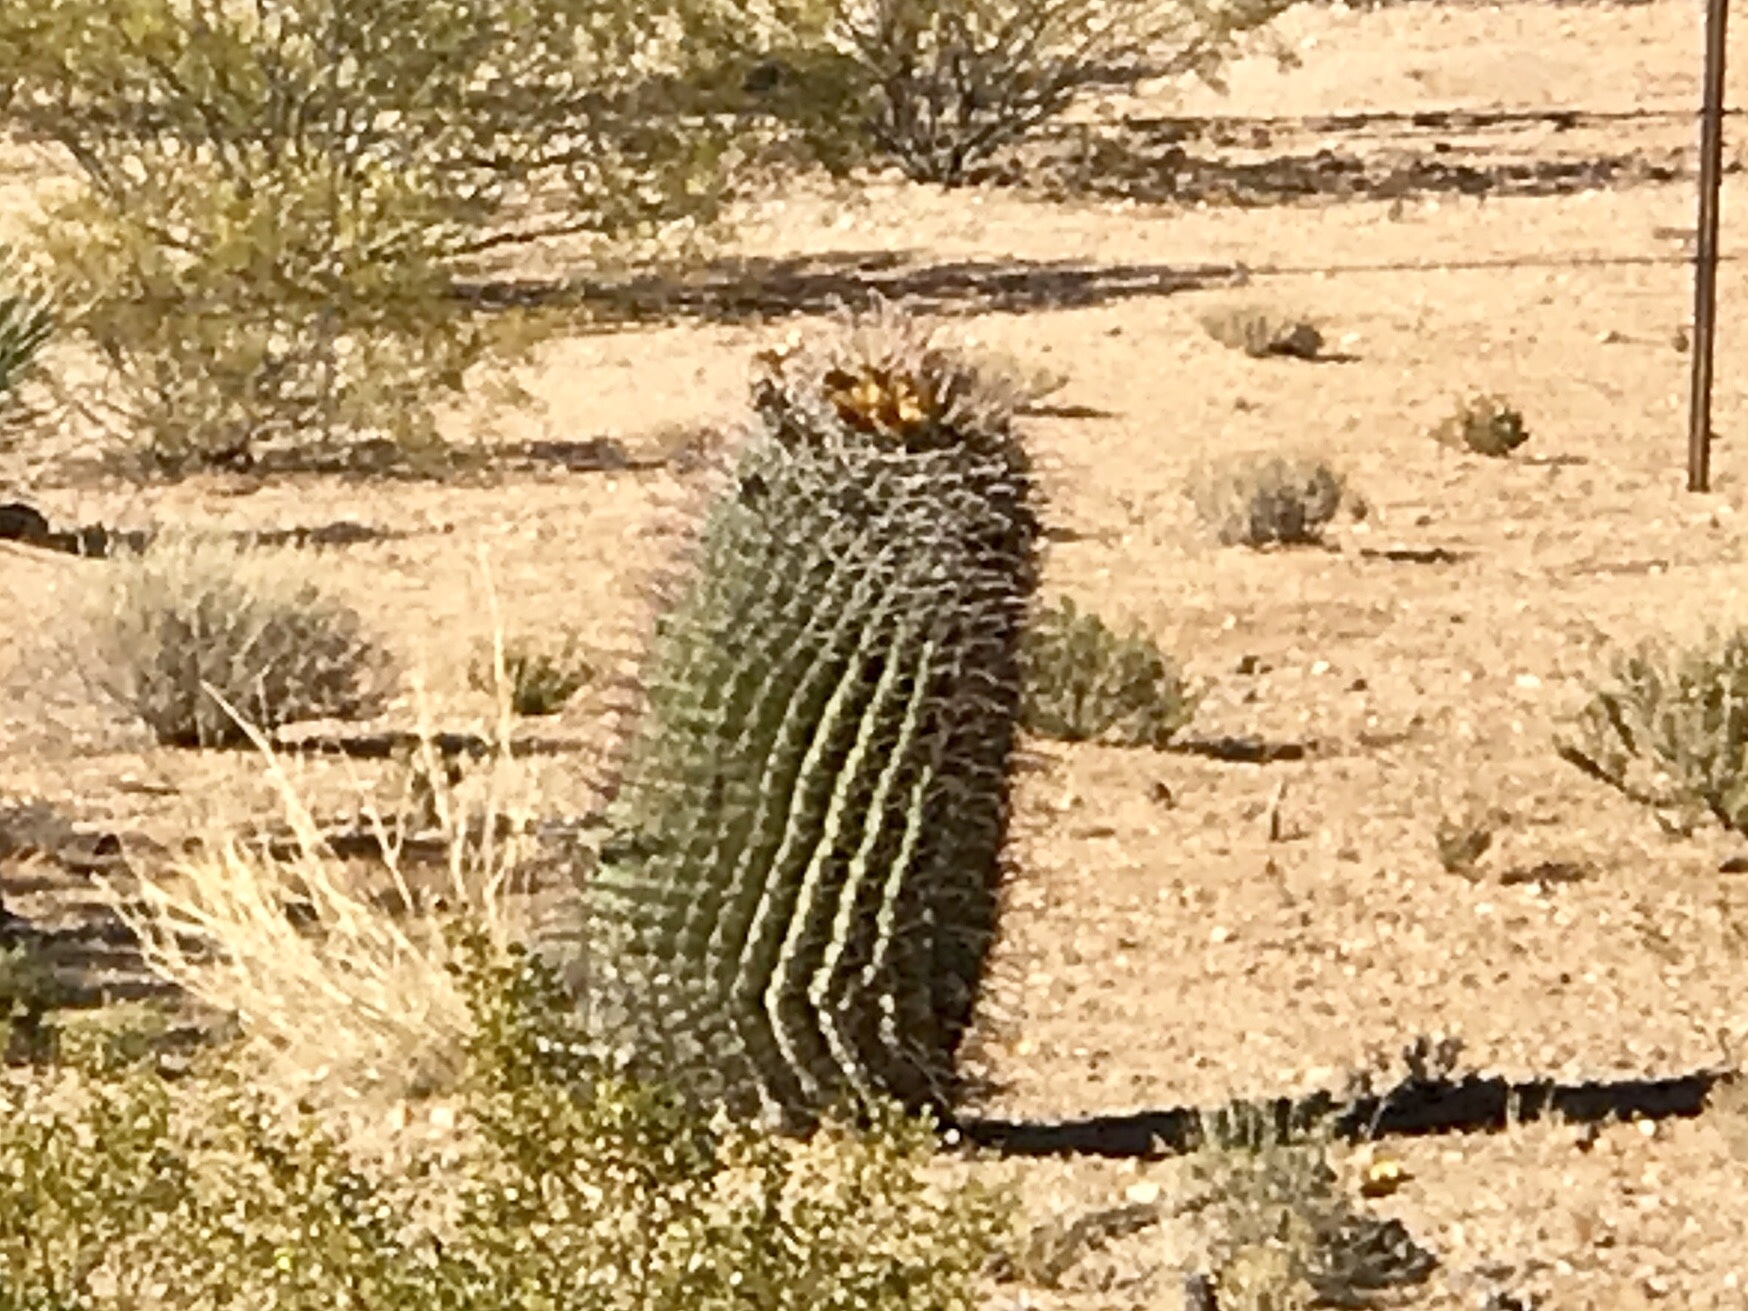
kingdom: Plantae
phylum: Tracheophyta
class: Magnoliopsida
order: Caryophyllales
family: Cactaceae
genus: Ferocactus
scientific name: Ferocactus wislizeni
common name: Candy barrel cactus
